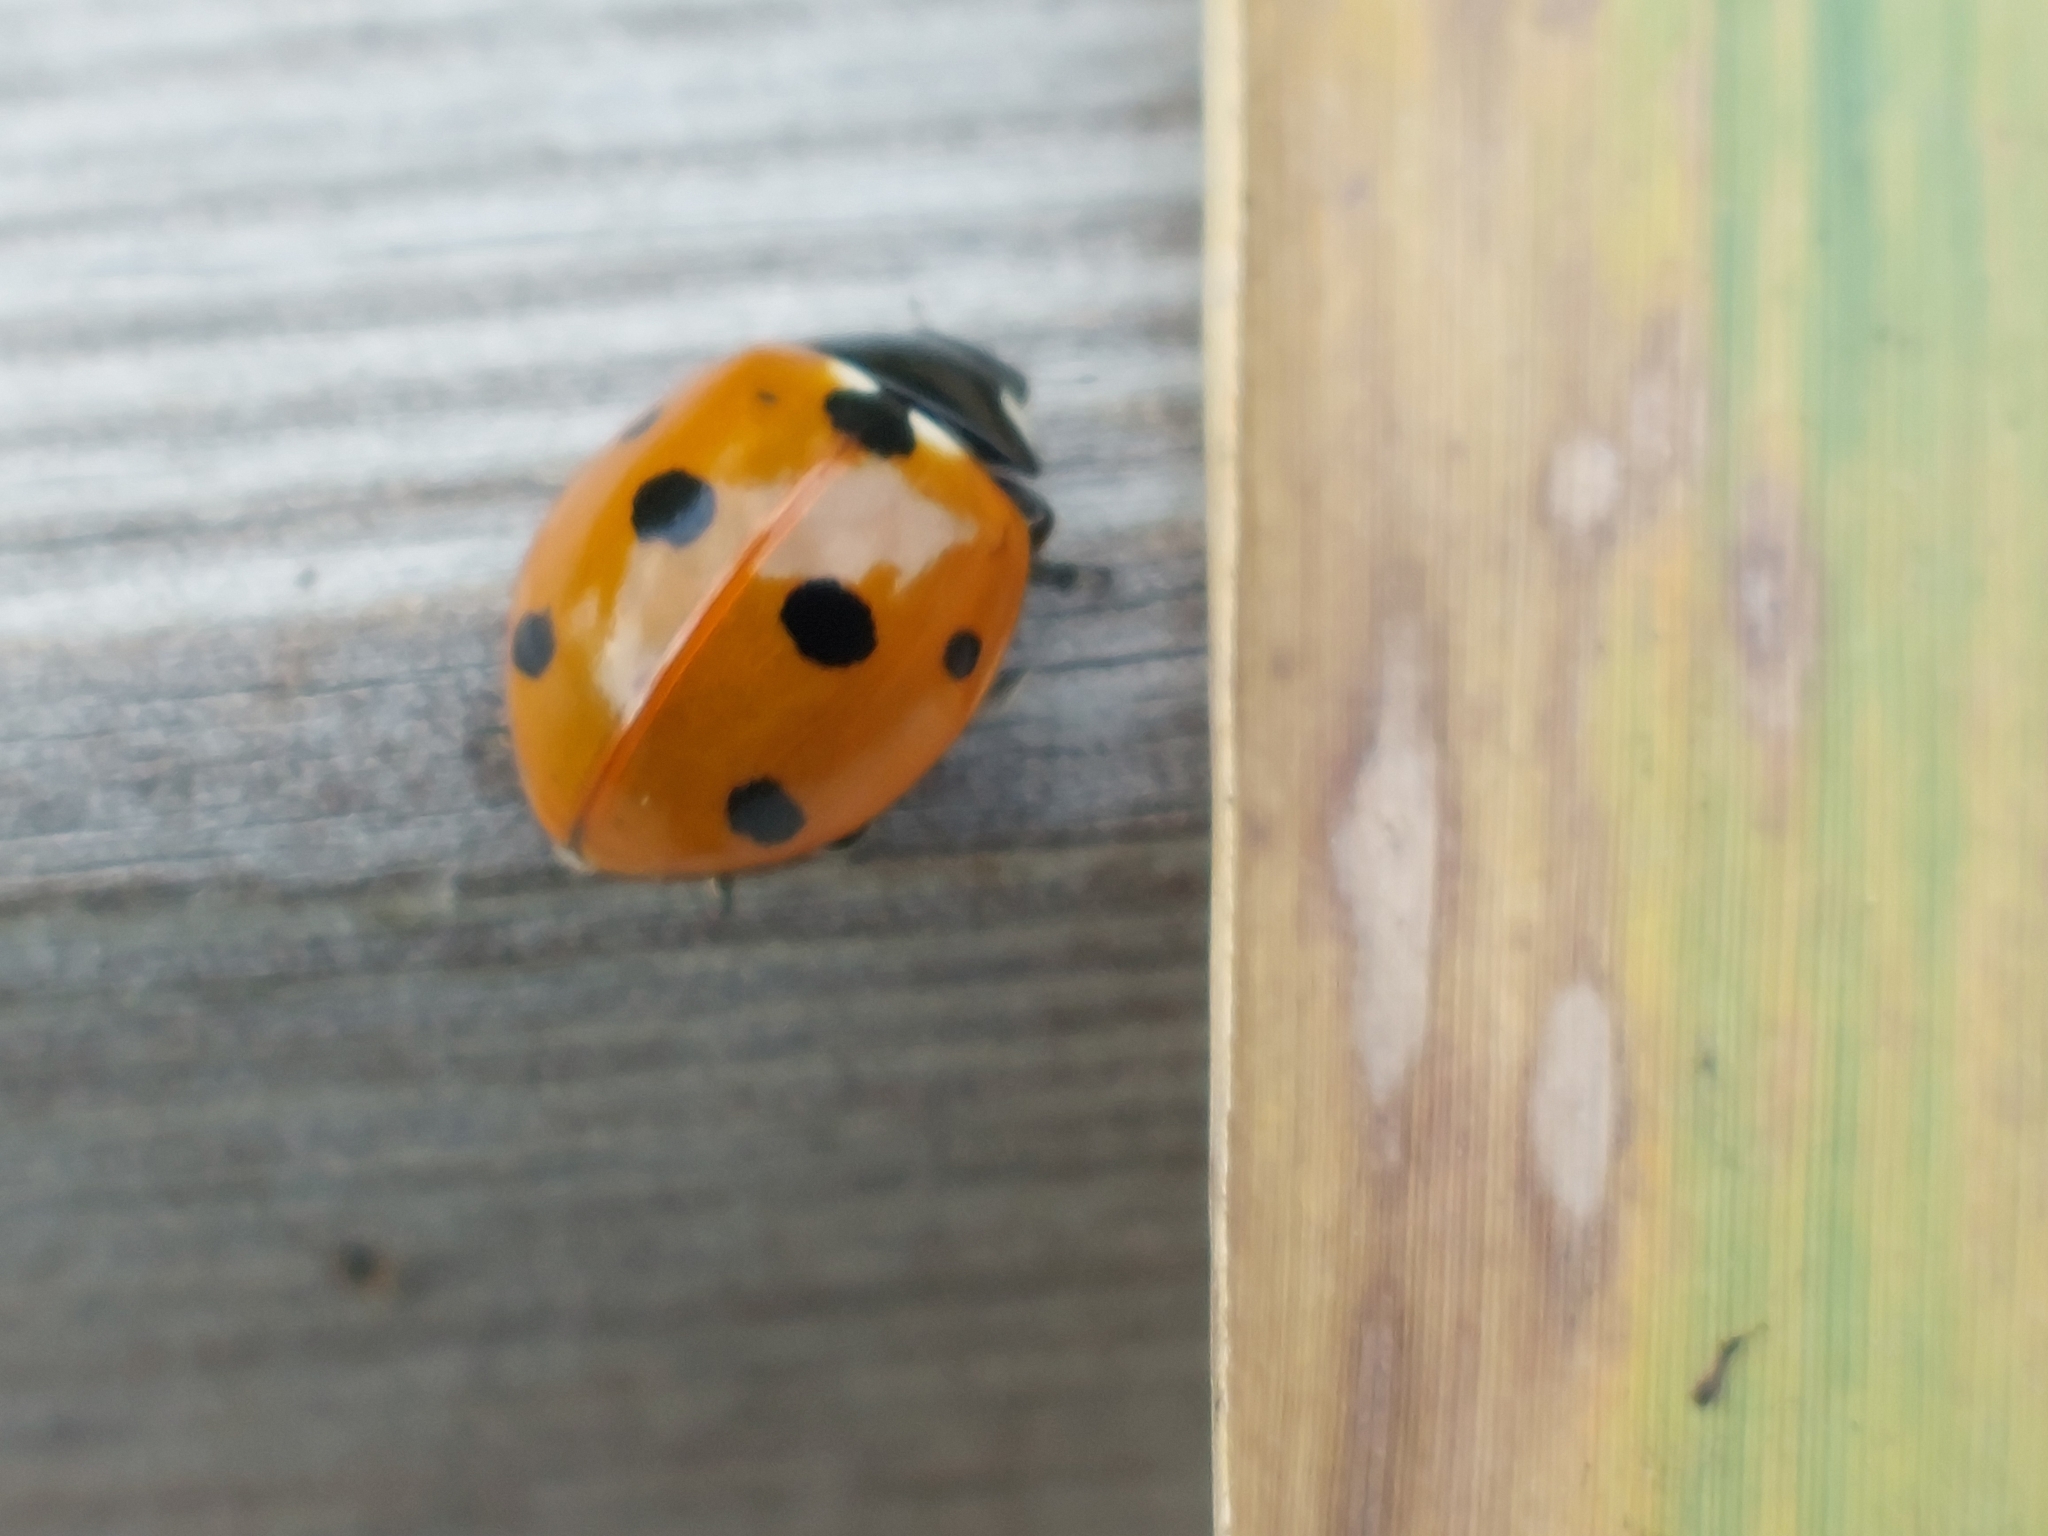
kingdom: Animalia
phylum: Arthropoda
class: Insecta
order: Coleoptera
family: Coccinellidae
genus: Coccinella
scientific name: Coccinella septempunctata
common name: Sevenspotted lady beetle
